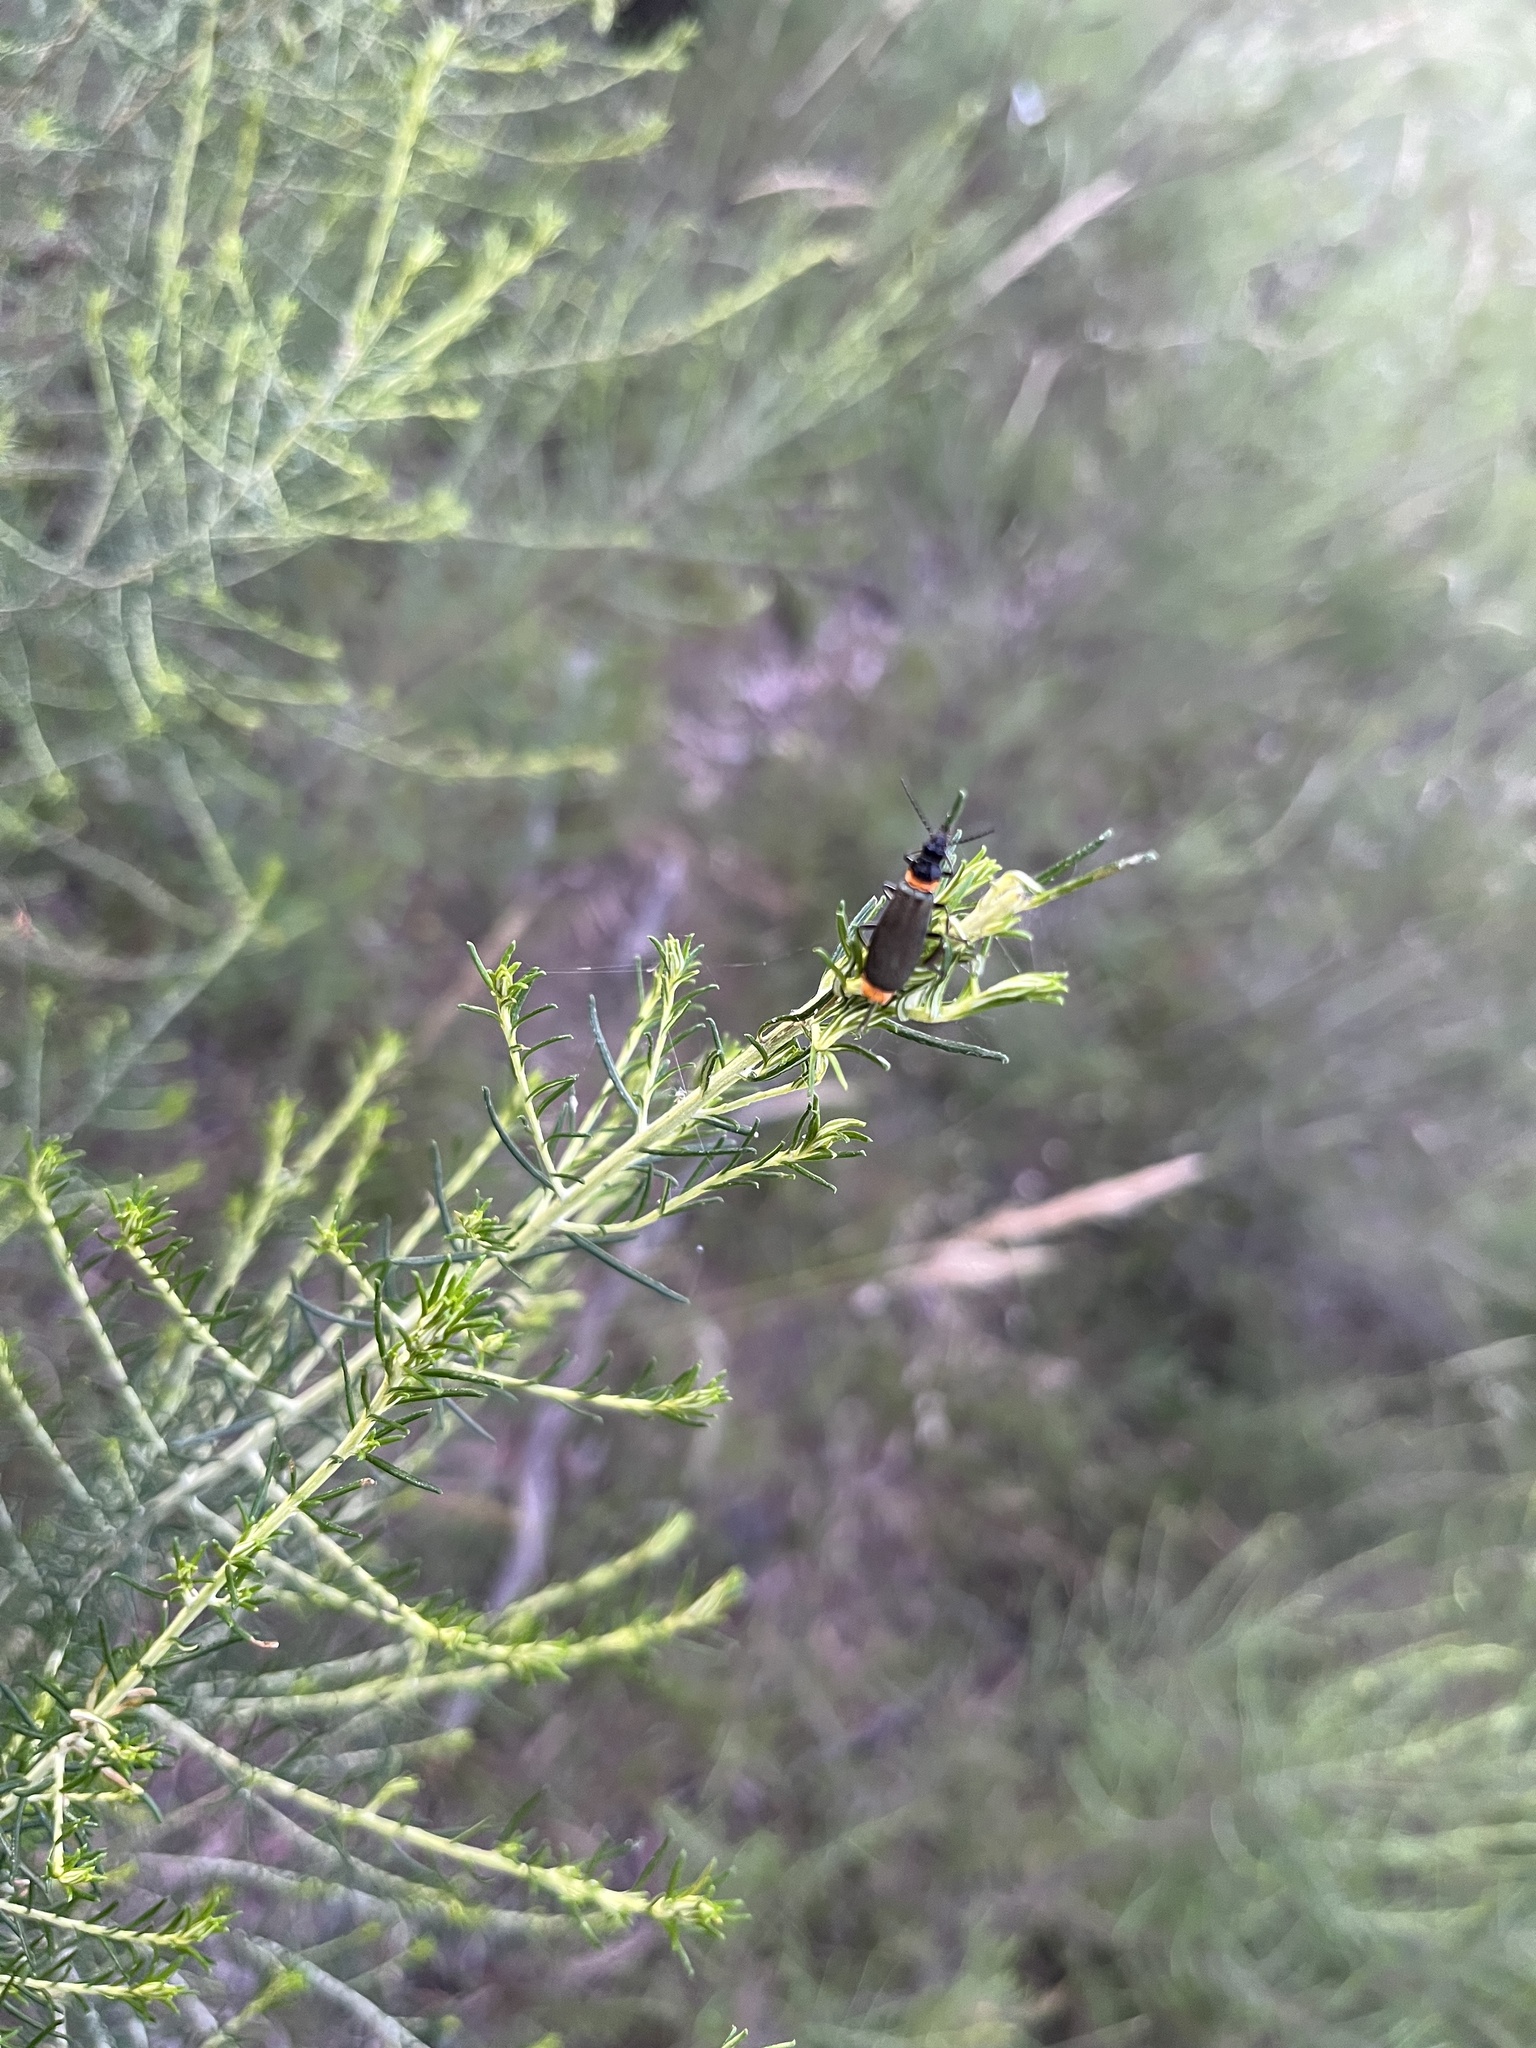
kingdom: Animalia
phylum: Arthropoda
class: Insecta
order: Coleoptera
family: Cantharidae
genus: Chauliognathus
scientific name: Chauliognathus
